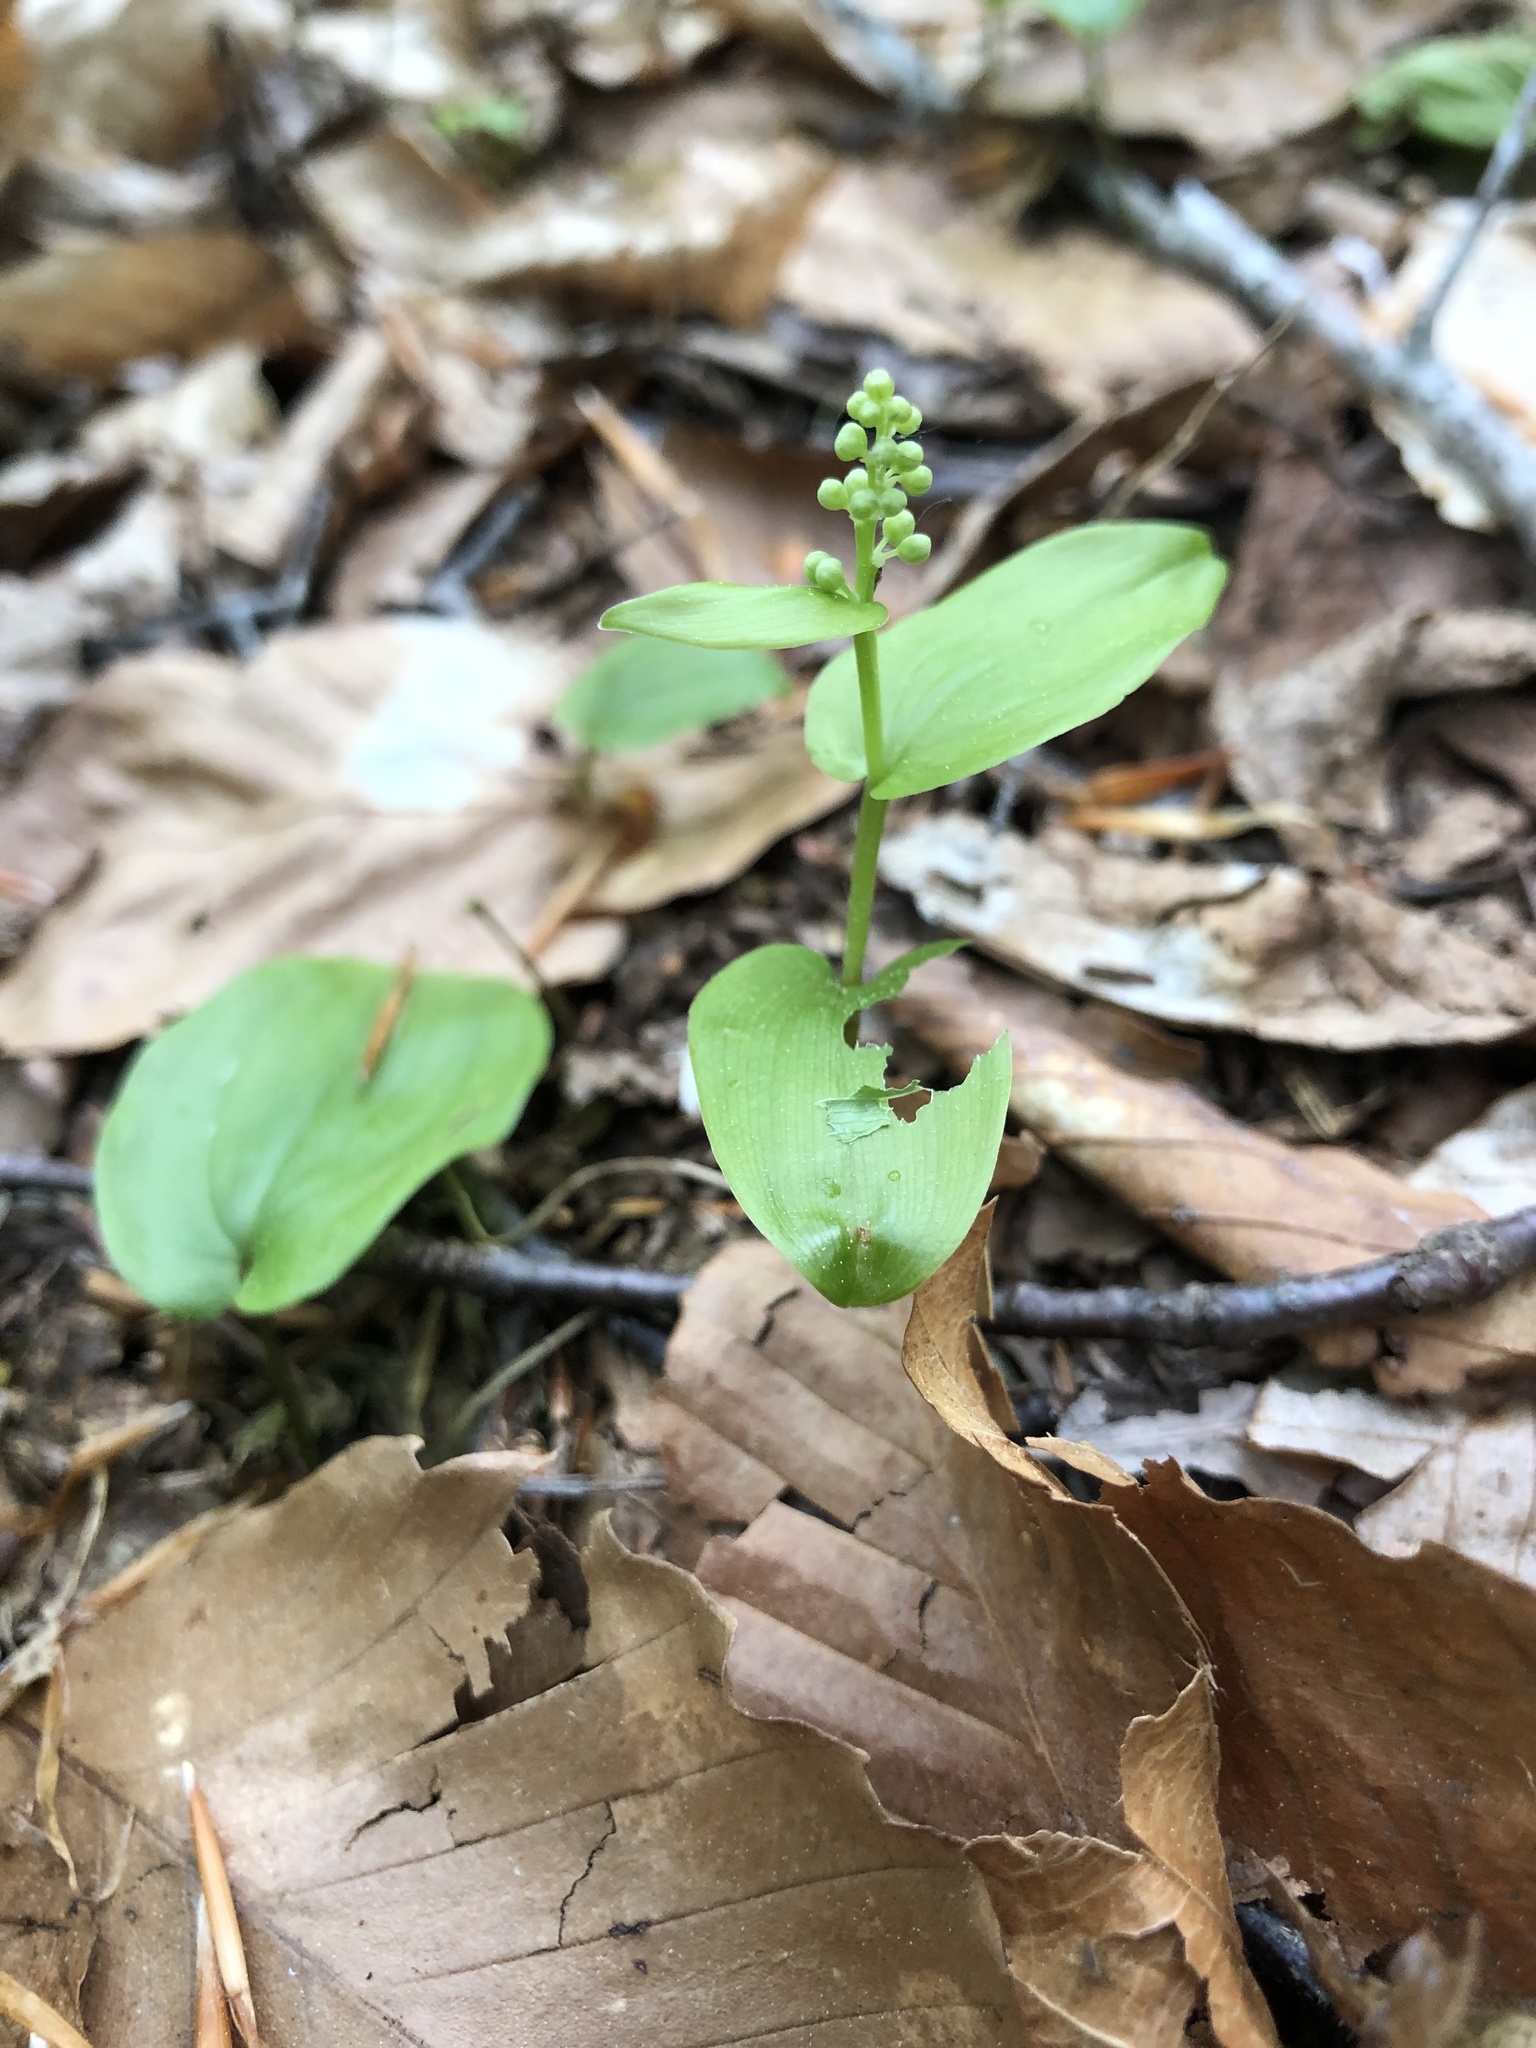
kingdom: Plantae
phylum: Tracheophyta
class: Liliopsida
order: Asparagales
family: Asparagaceae
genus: Maianthemum
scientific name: Maianthemum canadense
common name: False lily-of-the-valley
